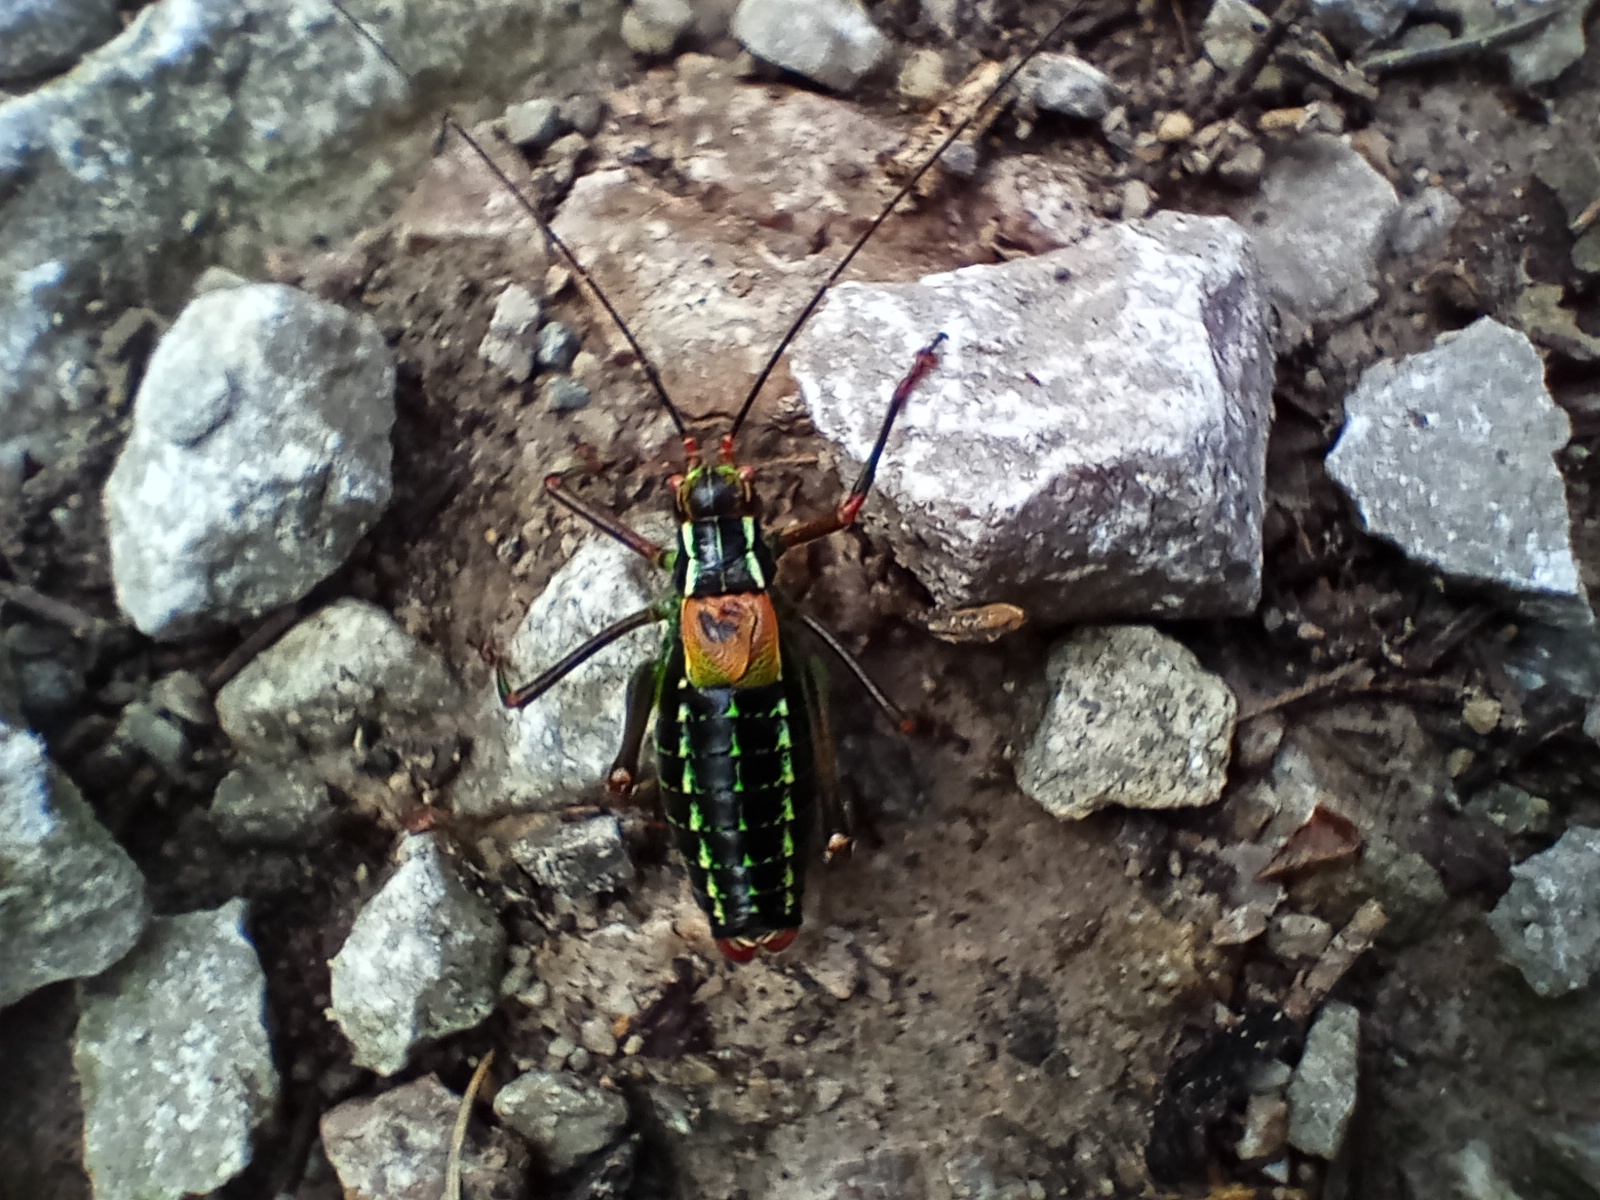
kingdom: Animalia
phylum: Arthropoda
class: Insecta
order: Orthoptera
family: Tettigoniidae
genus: Barbitistes
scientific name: Barbitistes constrictus
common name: Eastern saw-tailed bush cricket
